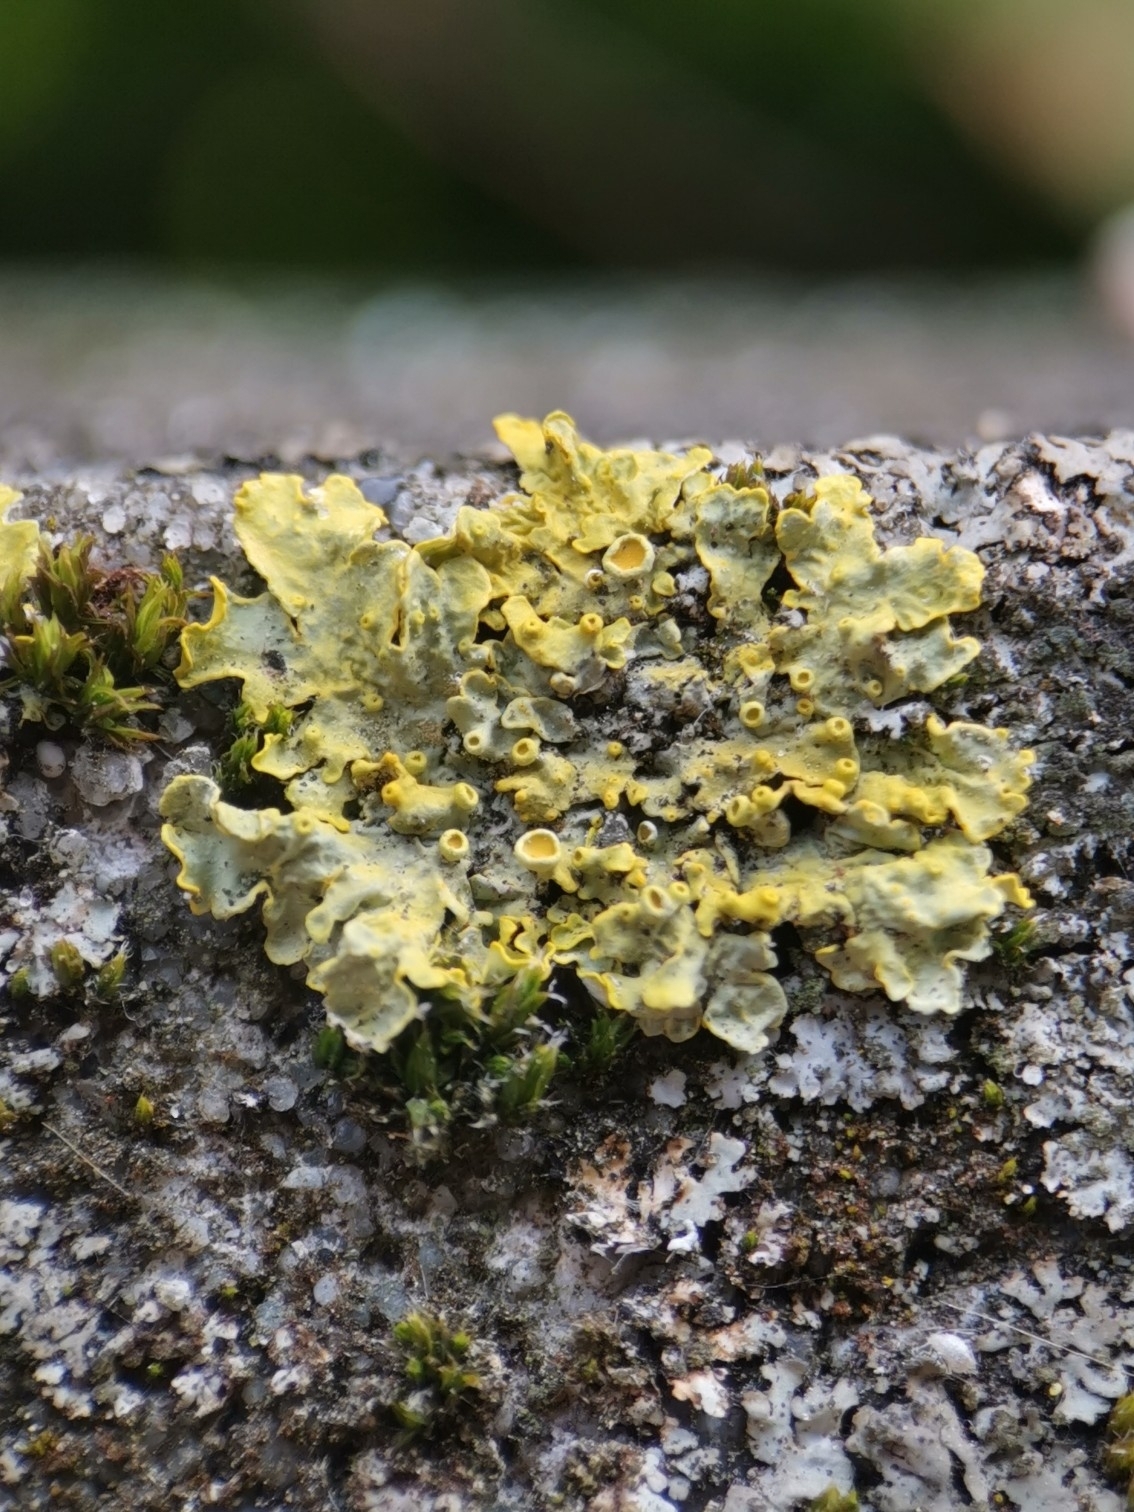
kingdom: Fungi
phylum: Ascomycota
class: Lecanoromycetes
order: Teloschistales
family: Teloschistaceae
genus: Xanthoria
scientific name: Xanthoria parietina
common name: Common orange lichen
